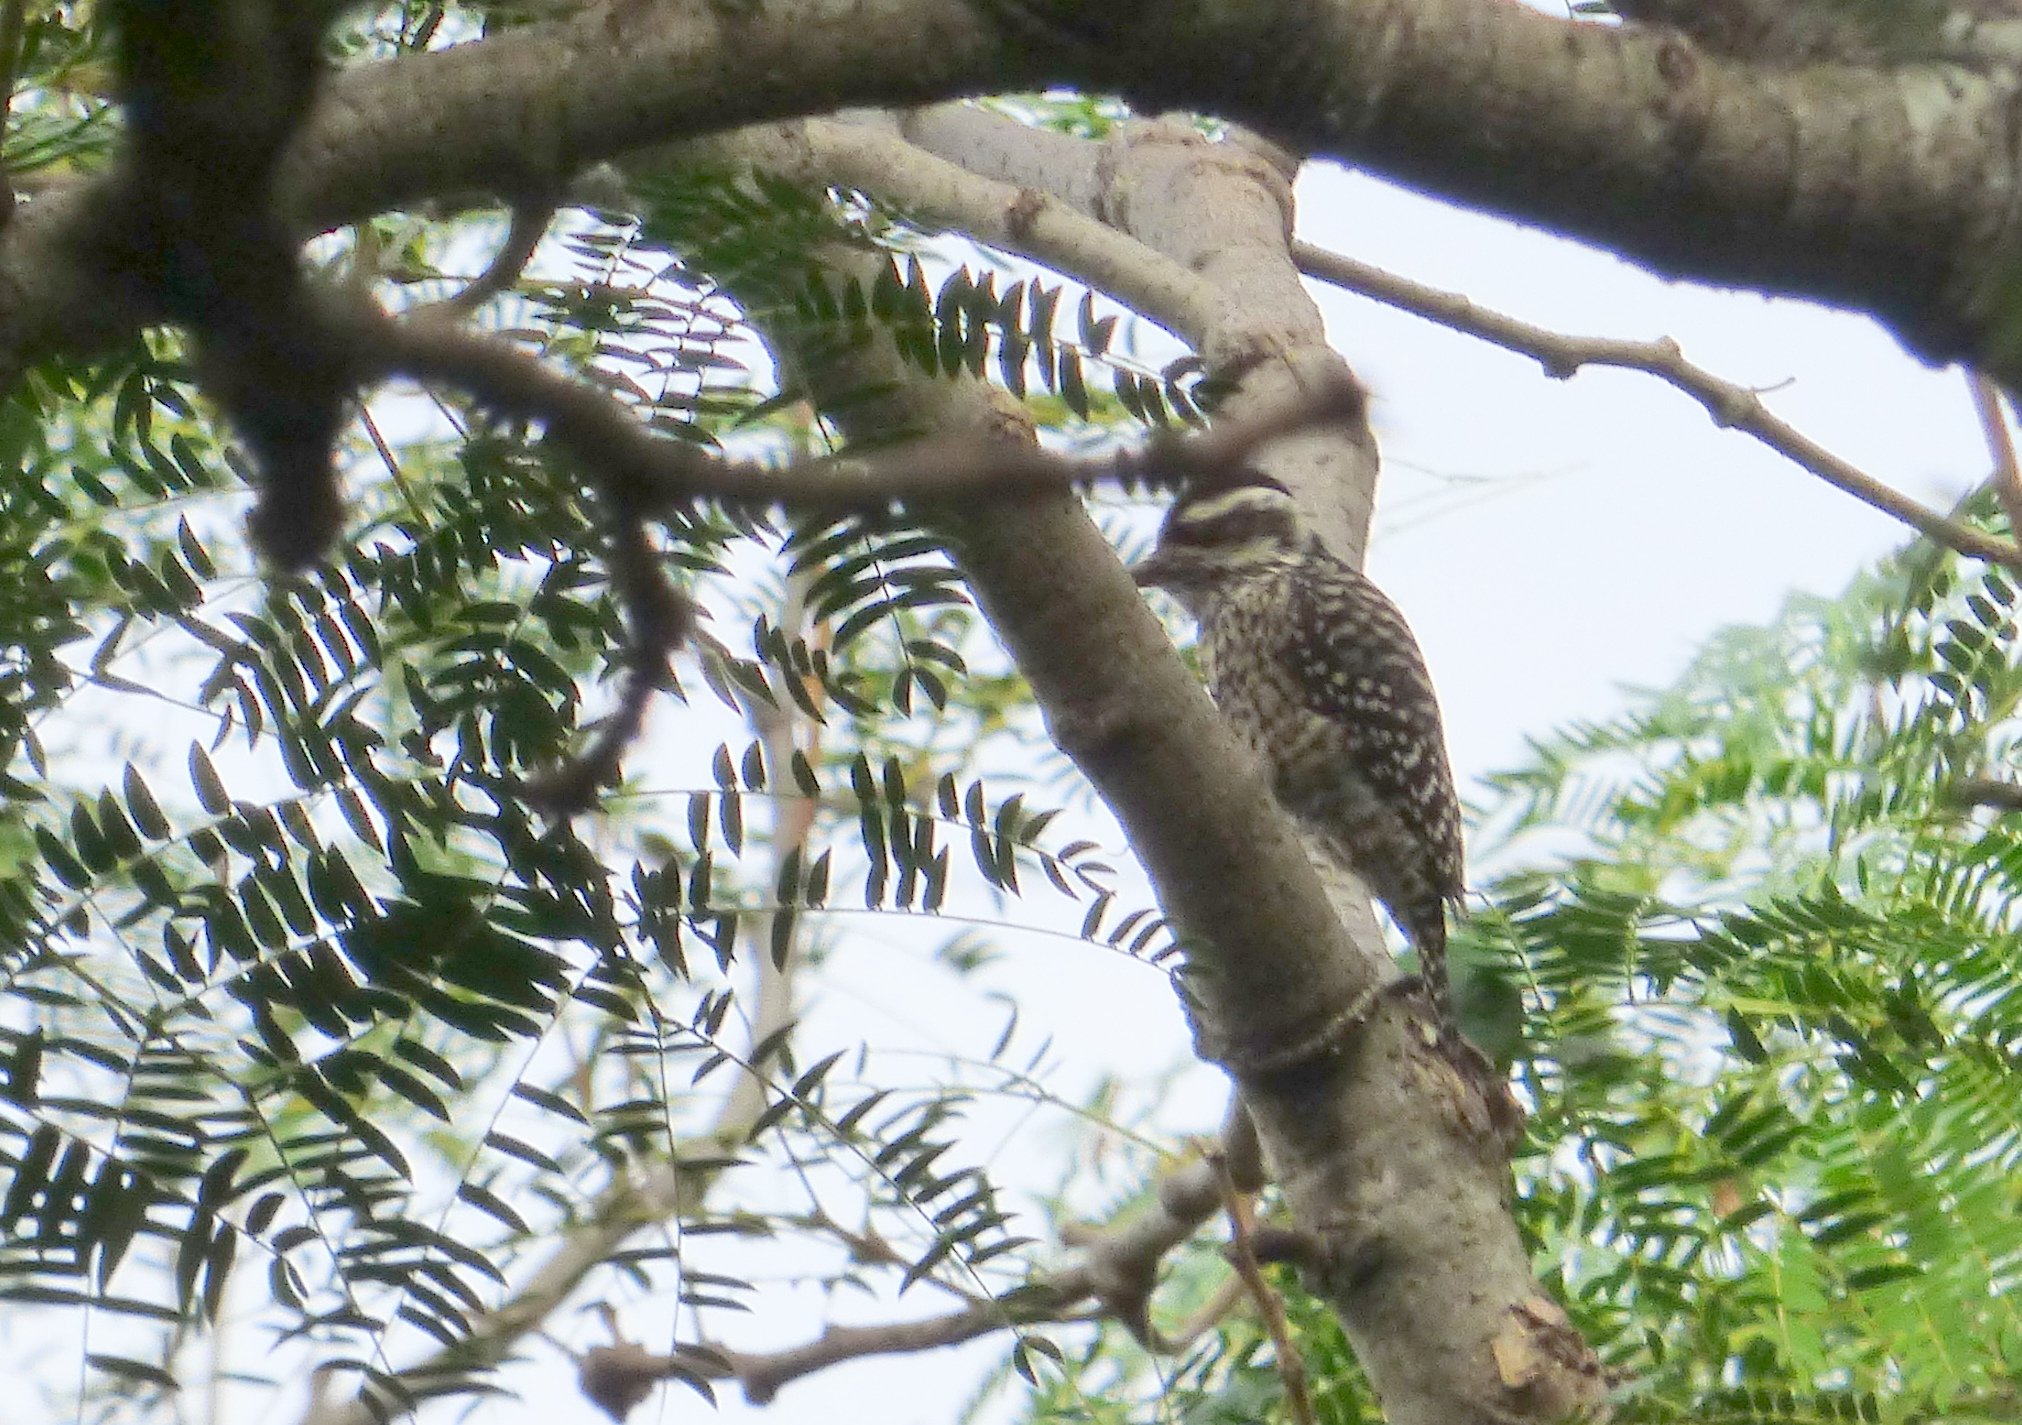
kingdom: Animalia
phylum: Chordata
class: Aves
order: Piciformes
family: Picidae
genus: Veniliornis
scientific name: Veniliornis mixtus
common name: Checkered woodpecker
